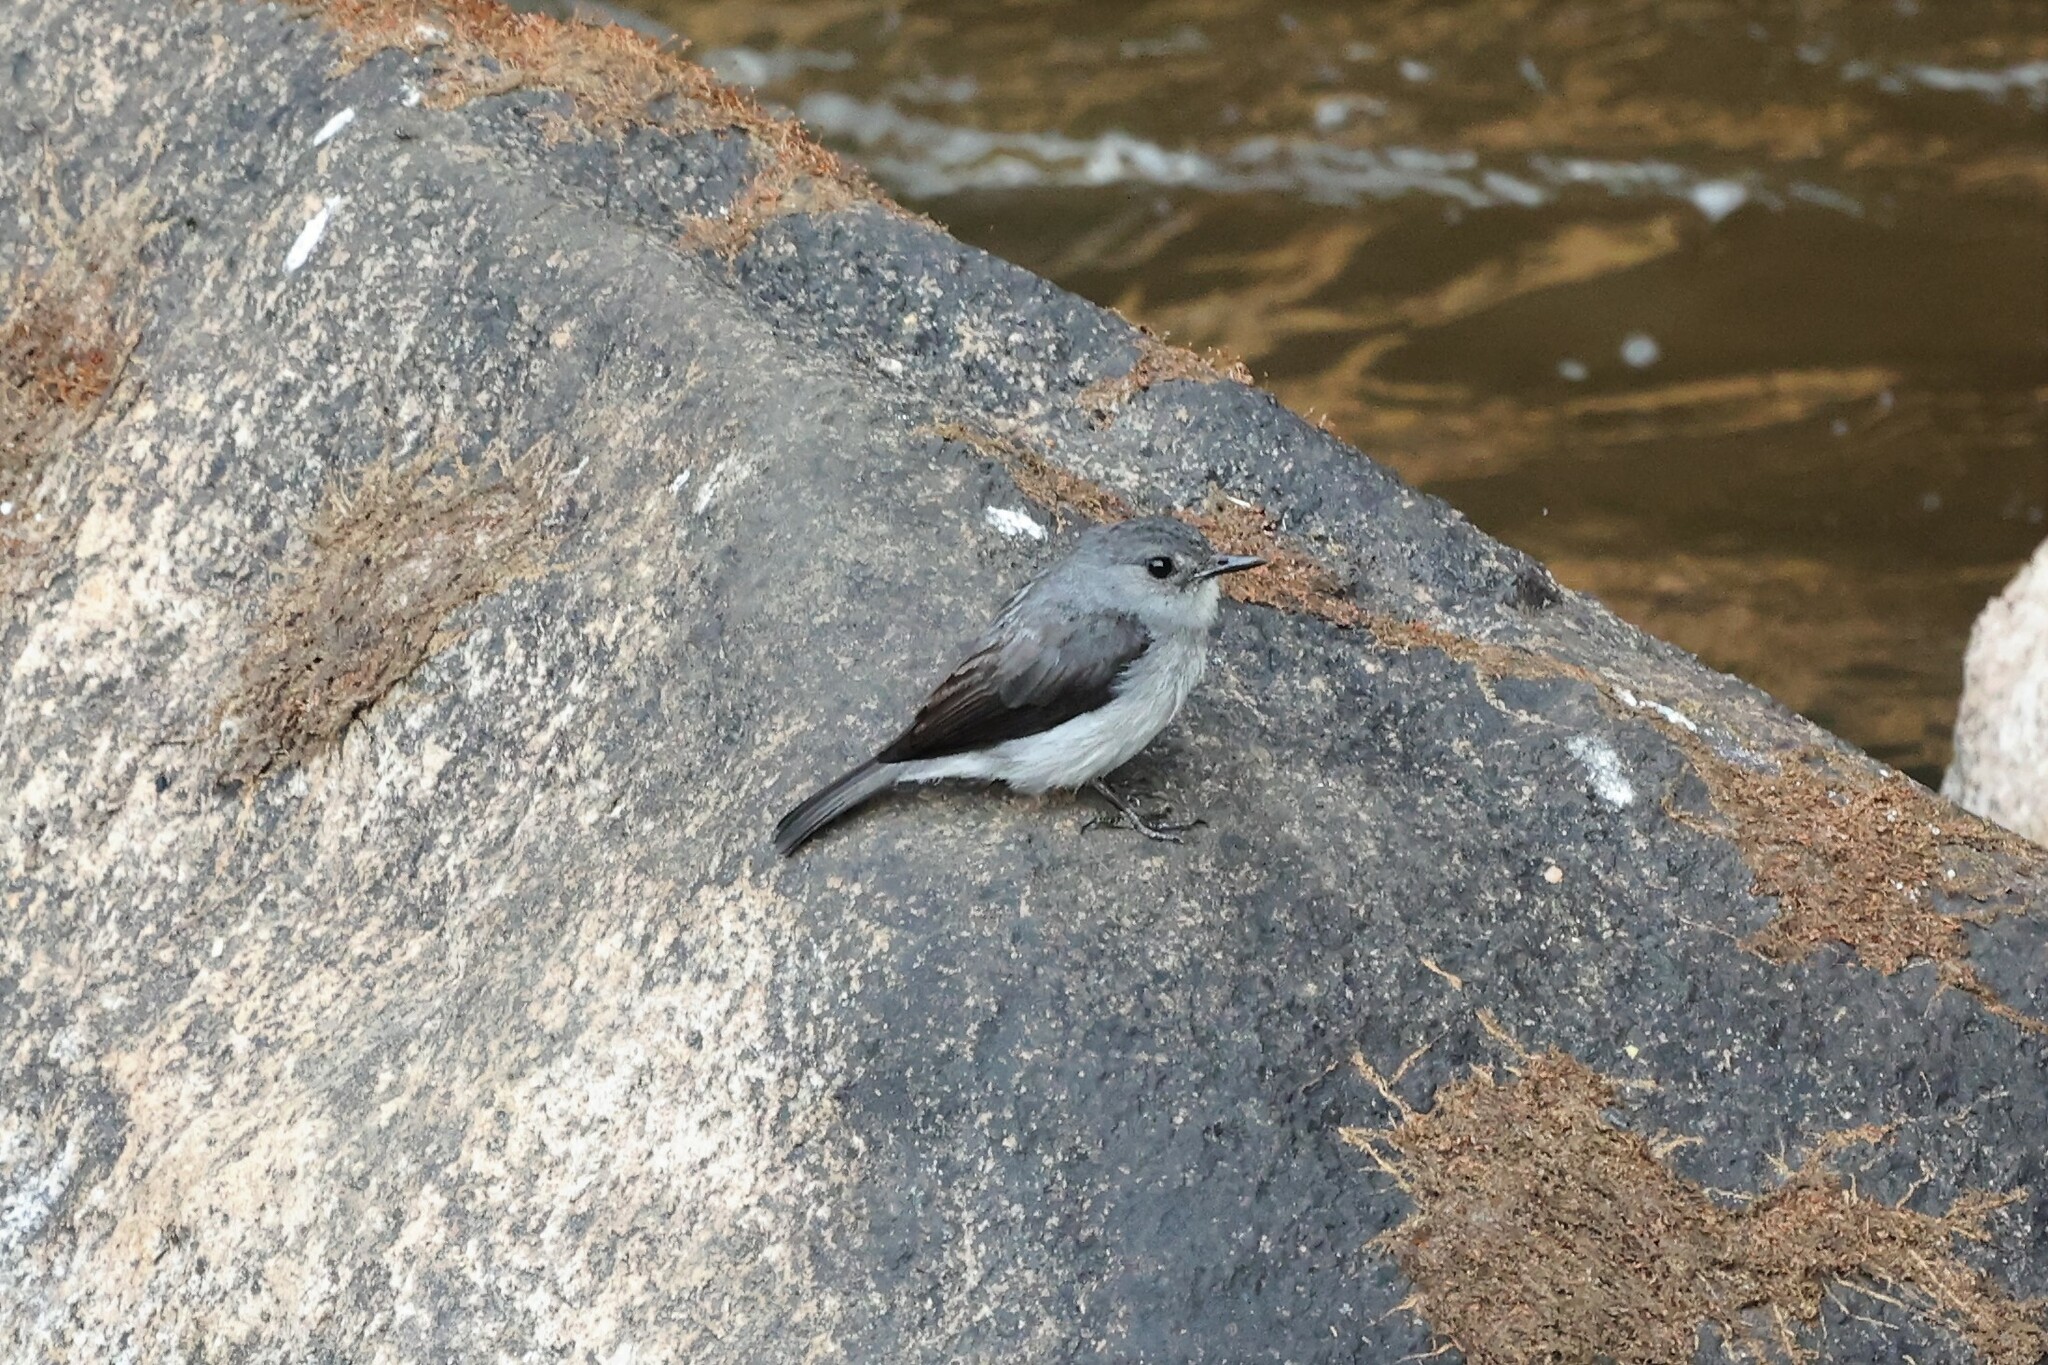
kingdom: Animalia
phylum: Chordata
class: Aves
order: Passeriformes
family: Muscicapidae
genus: Muscicapa
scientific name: Muscicapa cassini
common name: Cassin's flycatcher
